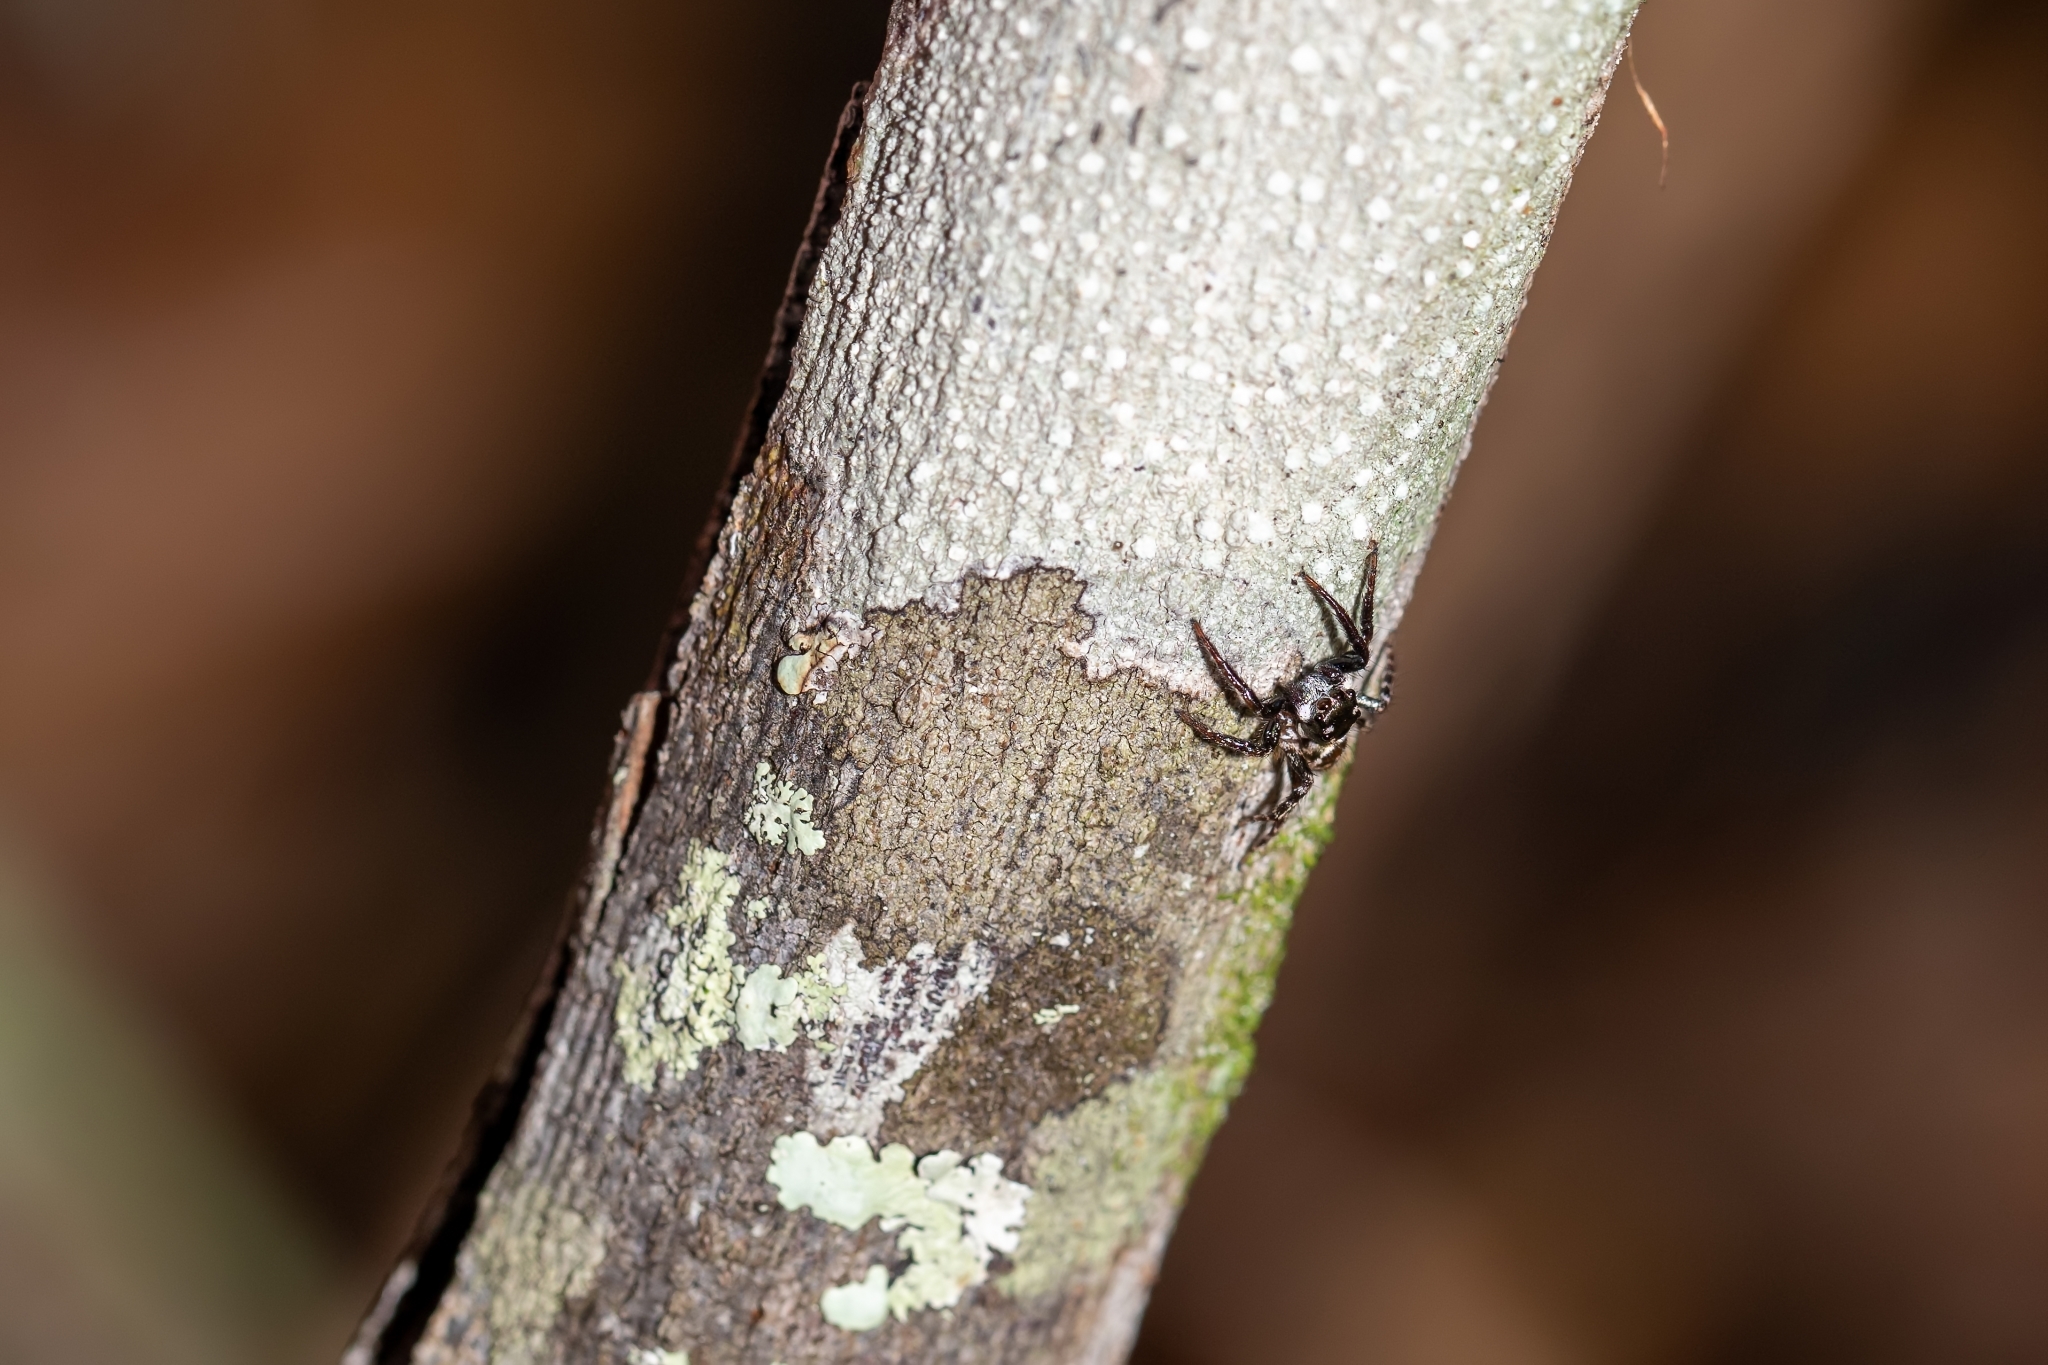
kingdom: Animalia
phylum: Arthropoda
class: Arachnida
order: Araneae
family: Salticidae
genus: Anasaitis
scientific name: Anasaitis canosa
